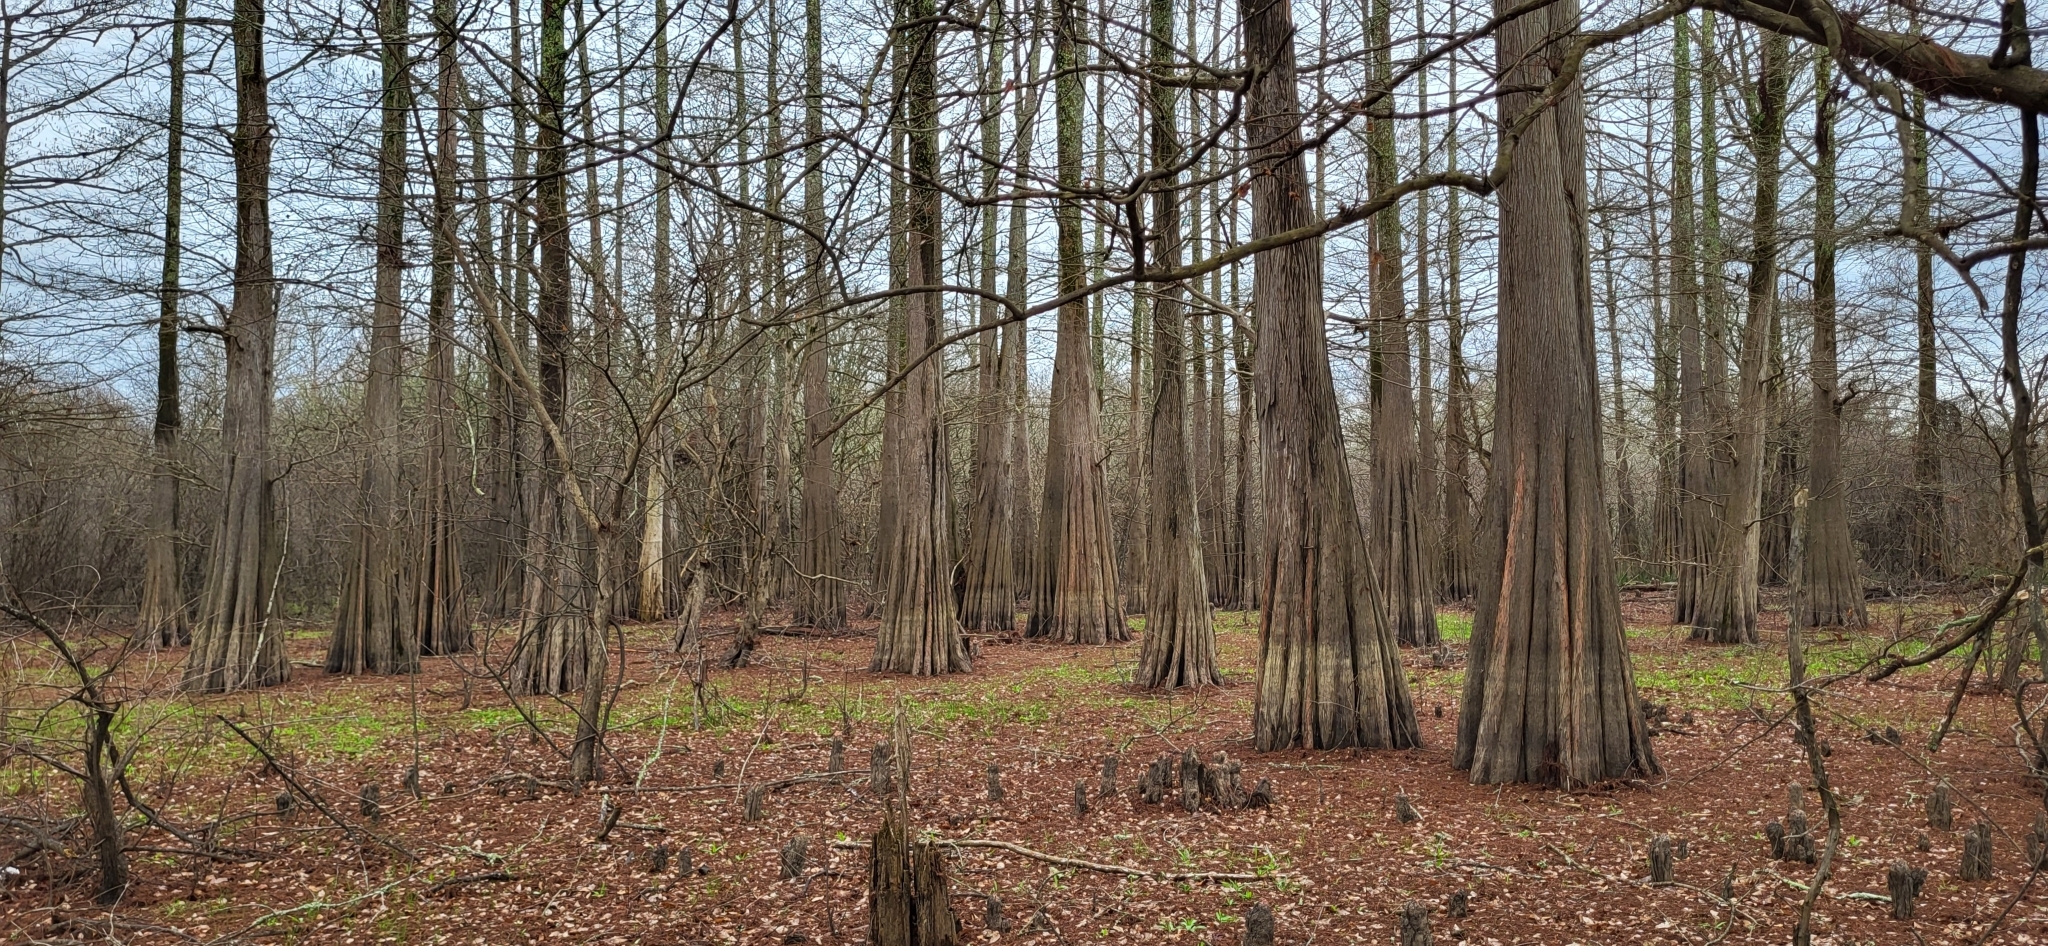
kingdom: Plantae
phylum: Tracheophyta
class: Pinopsida
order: Pinales
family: Cupressaceae
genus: Taxodium
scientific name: Taxodium distichum
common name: Bald cypress
